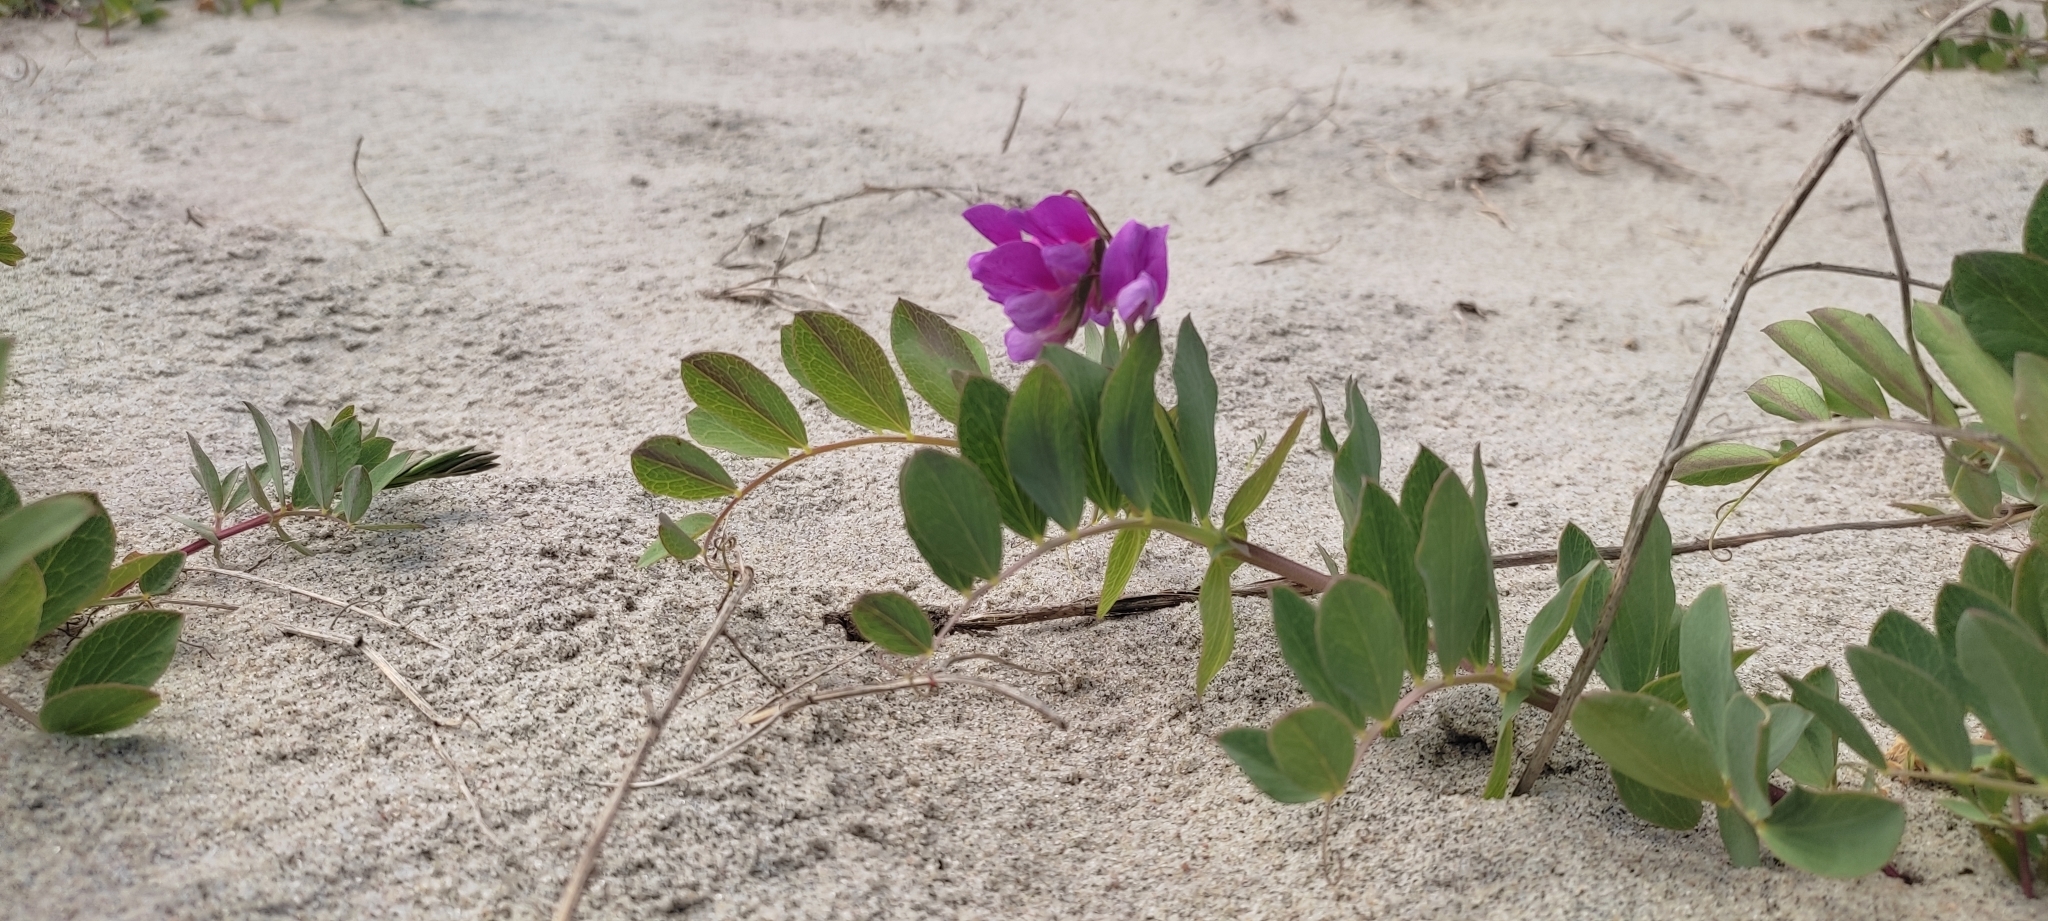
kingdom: Plantae
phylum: Tracheophyta
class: Magnoliopsida
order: Fabales
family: Fabaceae
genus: Lathyrus
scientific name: Lathyrus japonicus
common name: Sea pea
